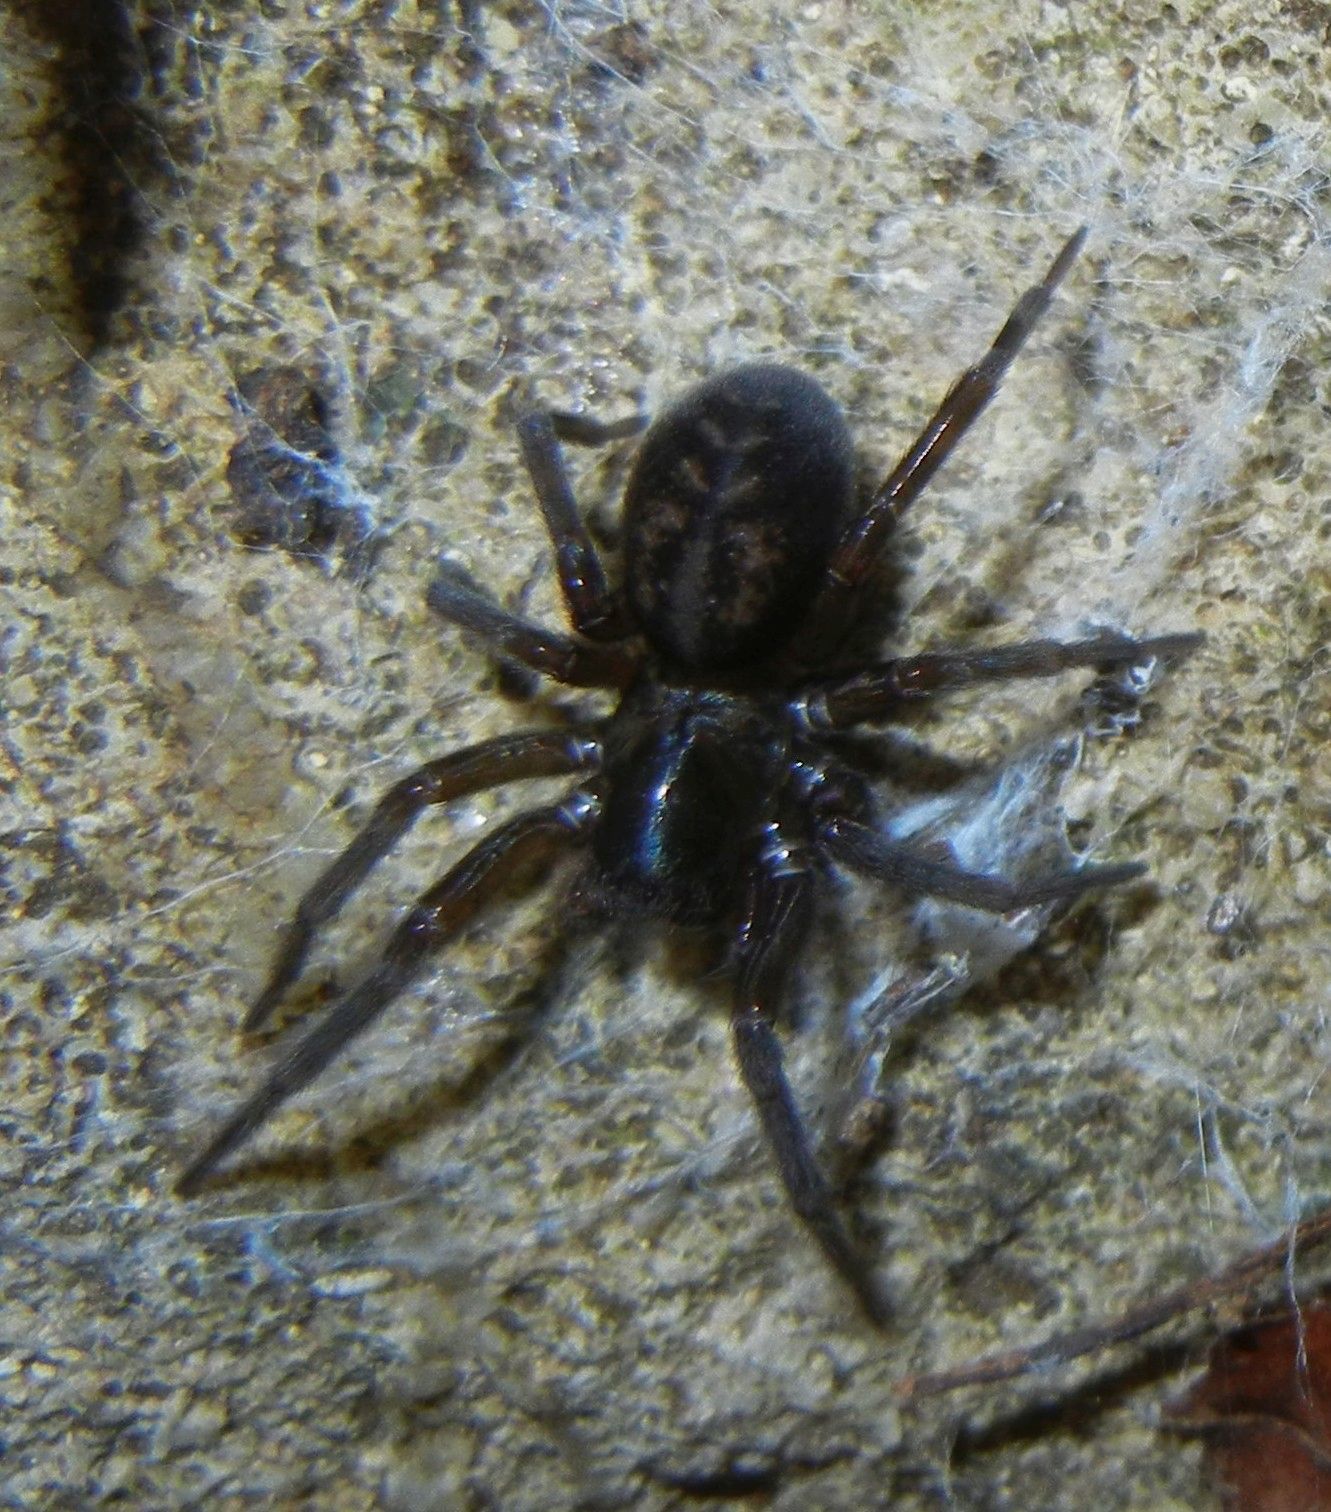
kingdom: Animalia
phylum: Arthropoda
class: Arachnida
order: Araneae
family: Amaurobiidae
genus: Amaurobius
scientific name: Amaurobius ferox
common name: Black laceweaver
